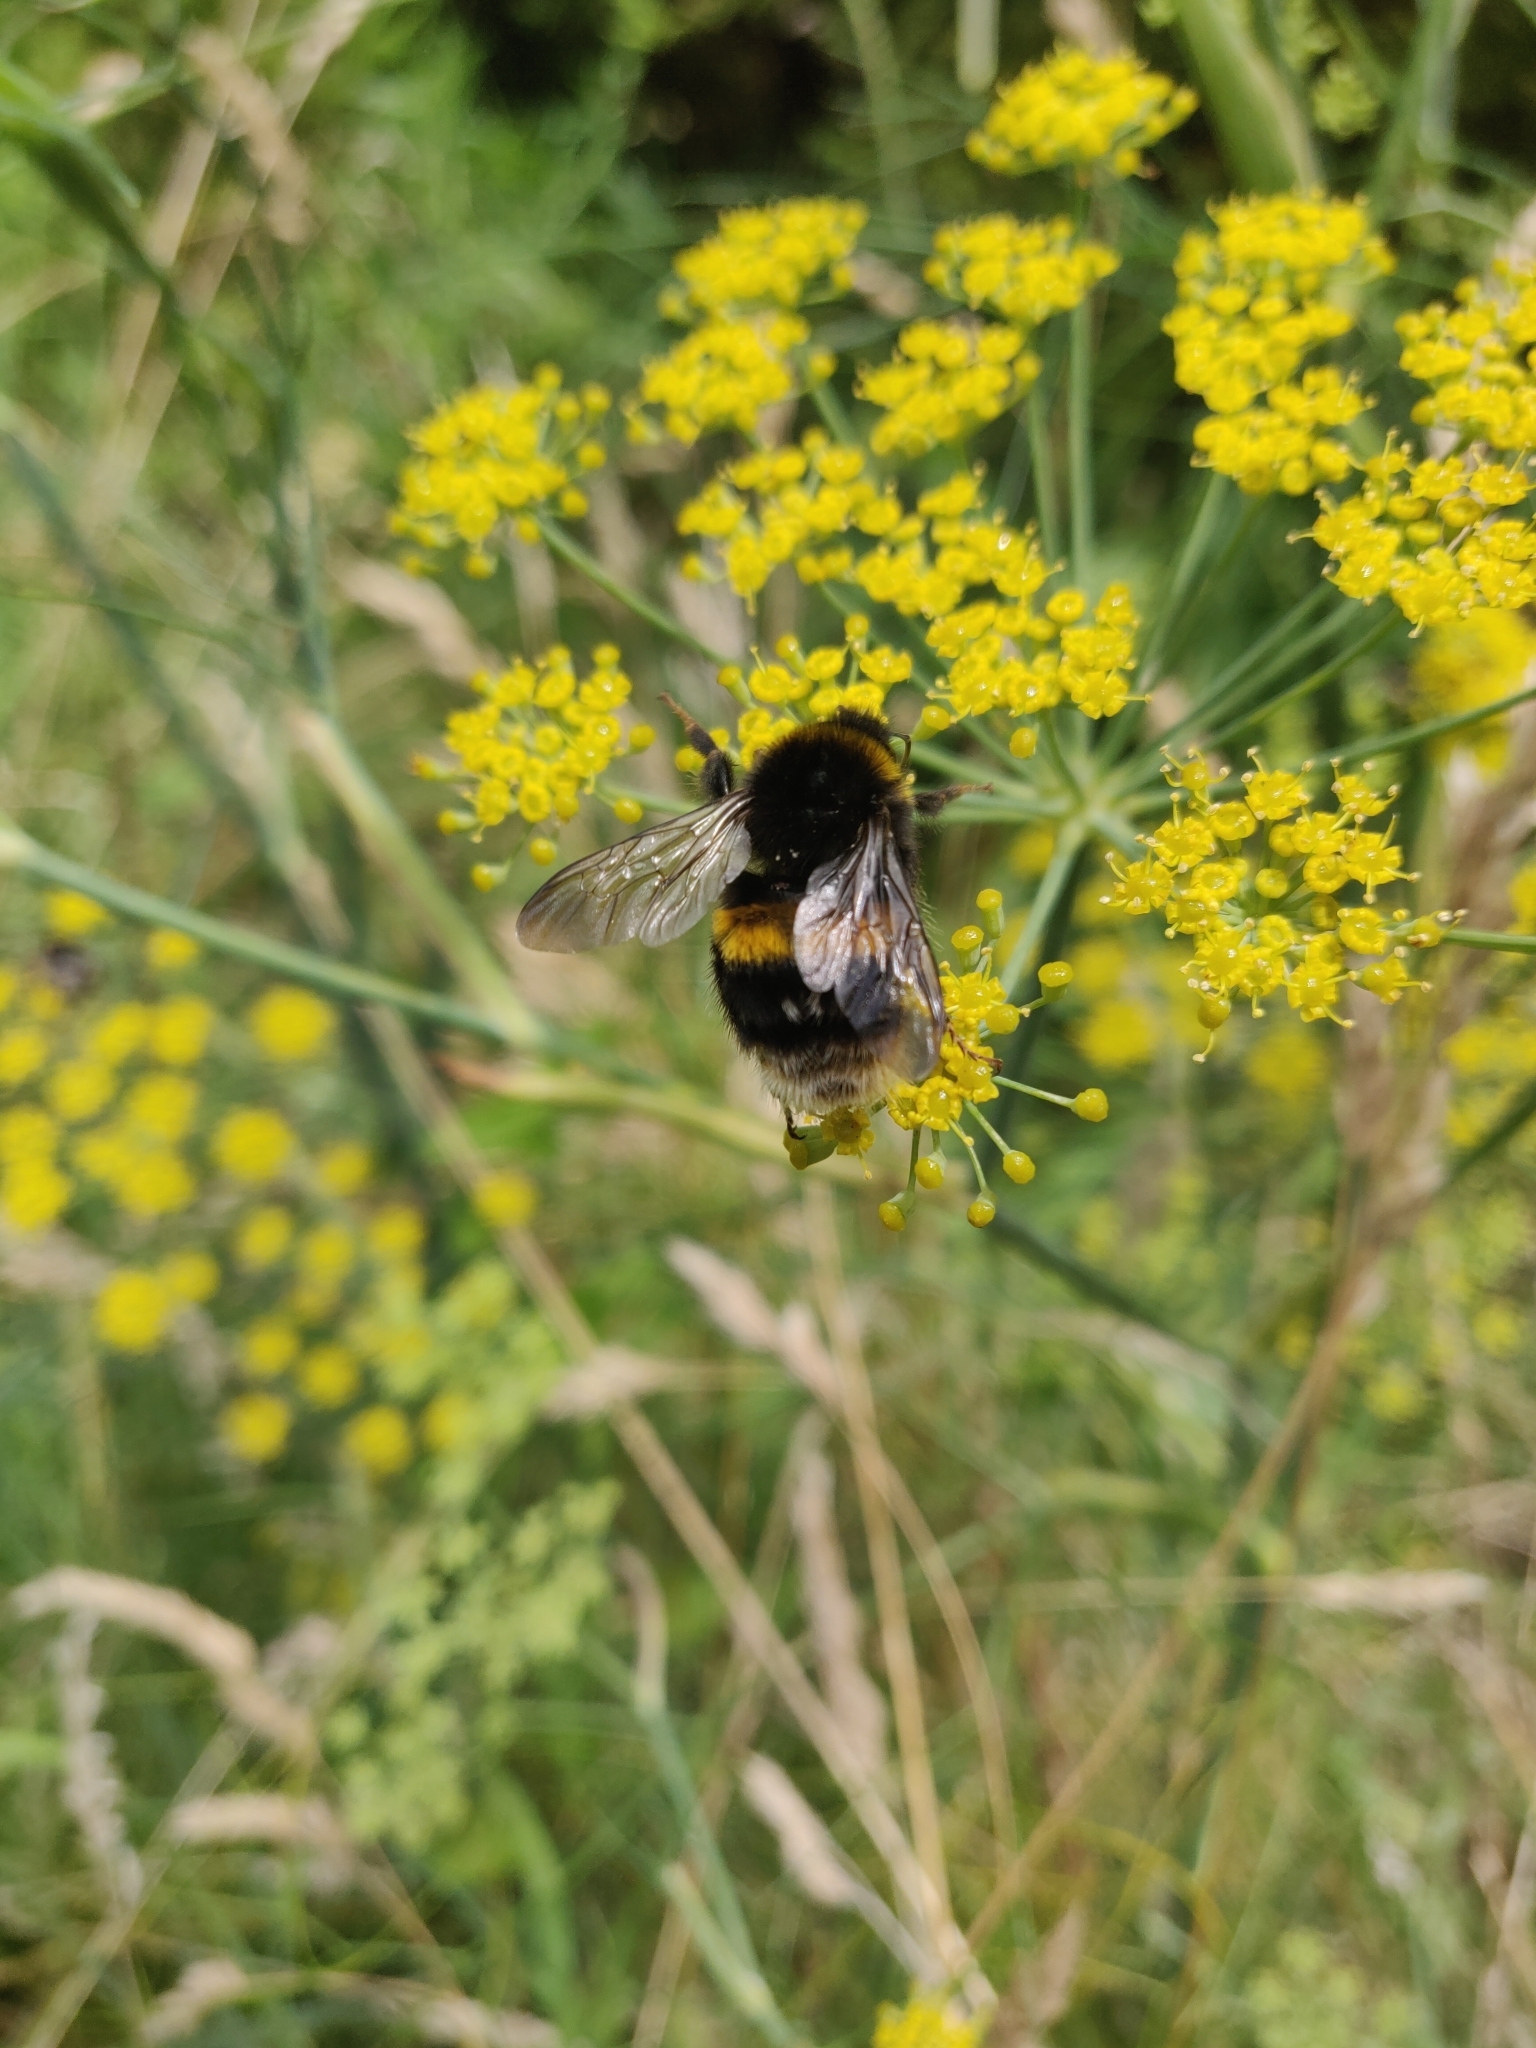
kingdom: Animalia
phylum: Arthropoda
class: Insecta
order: Hymenoptera
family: Apidae
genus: Bombus
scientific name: Bombus terrestris
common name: Buff-tailed bumblebee
